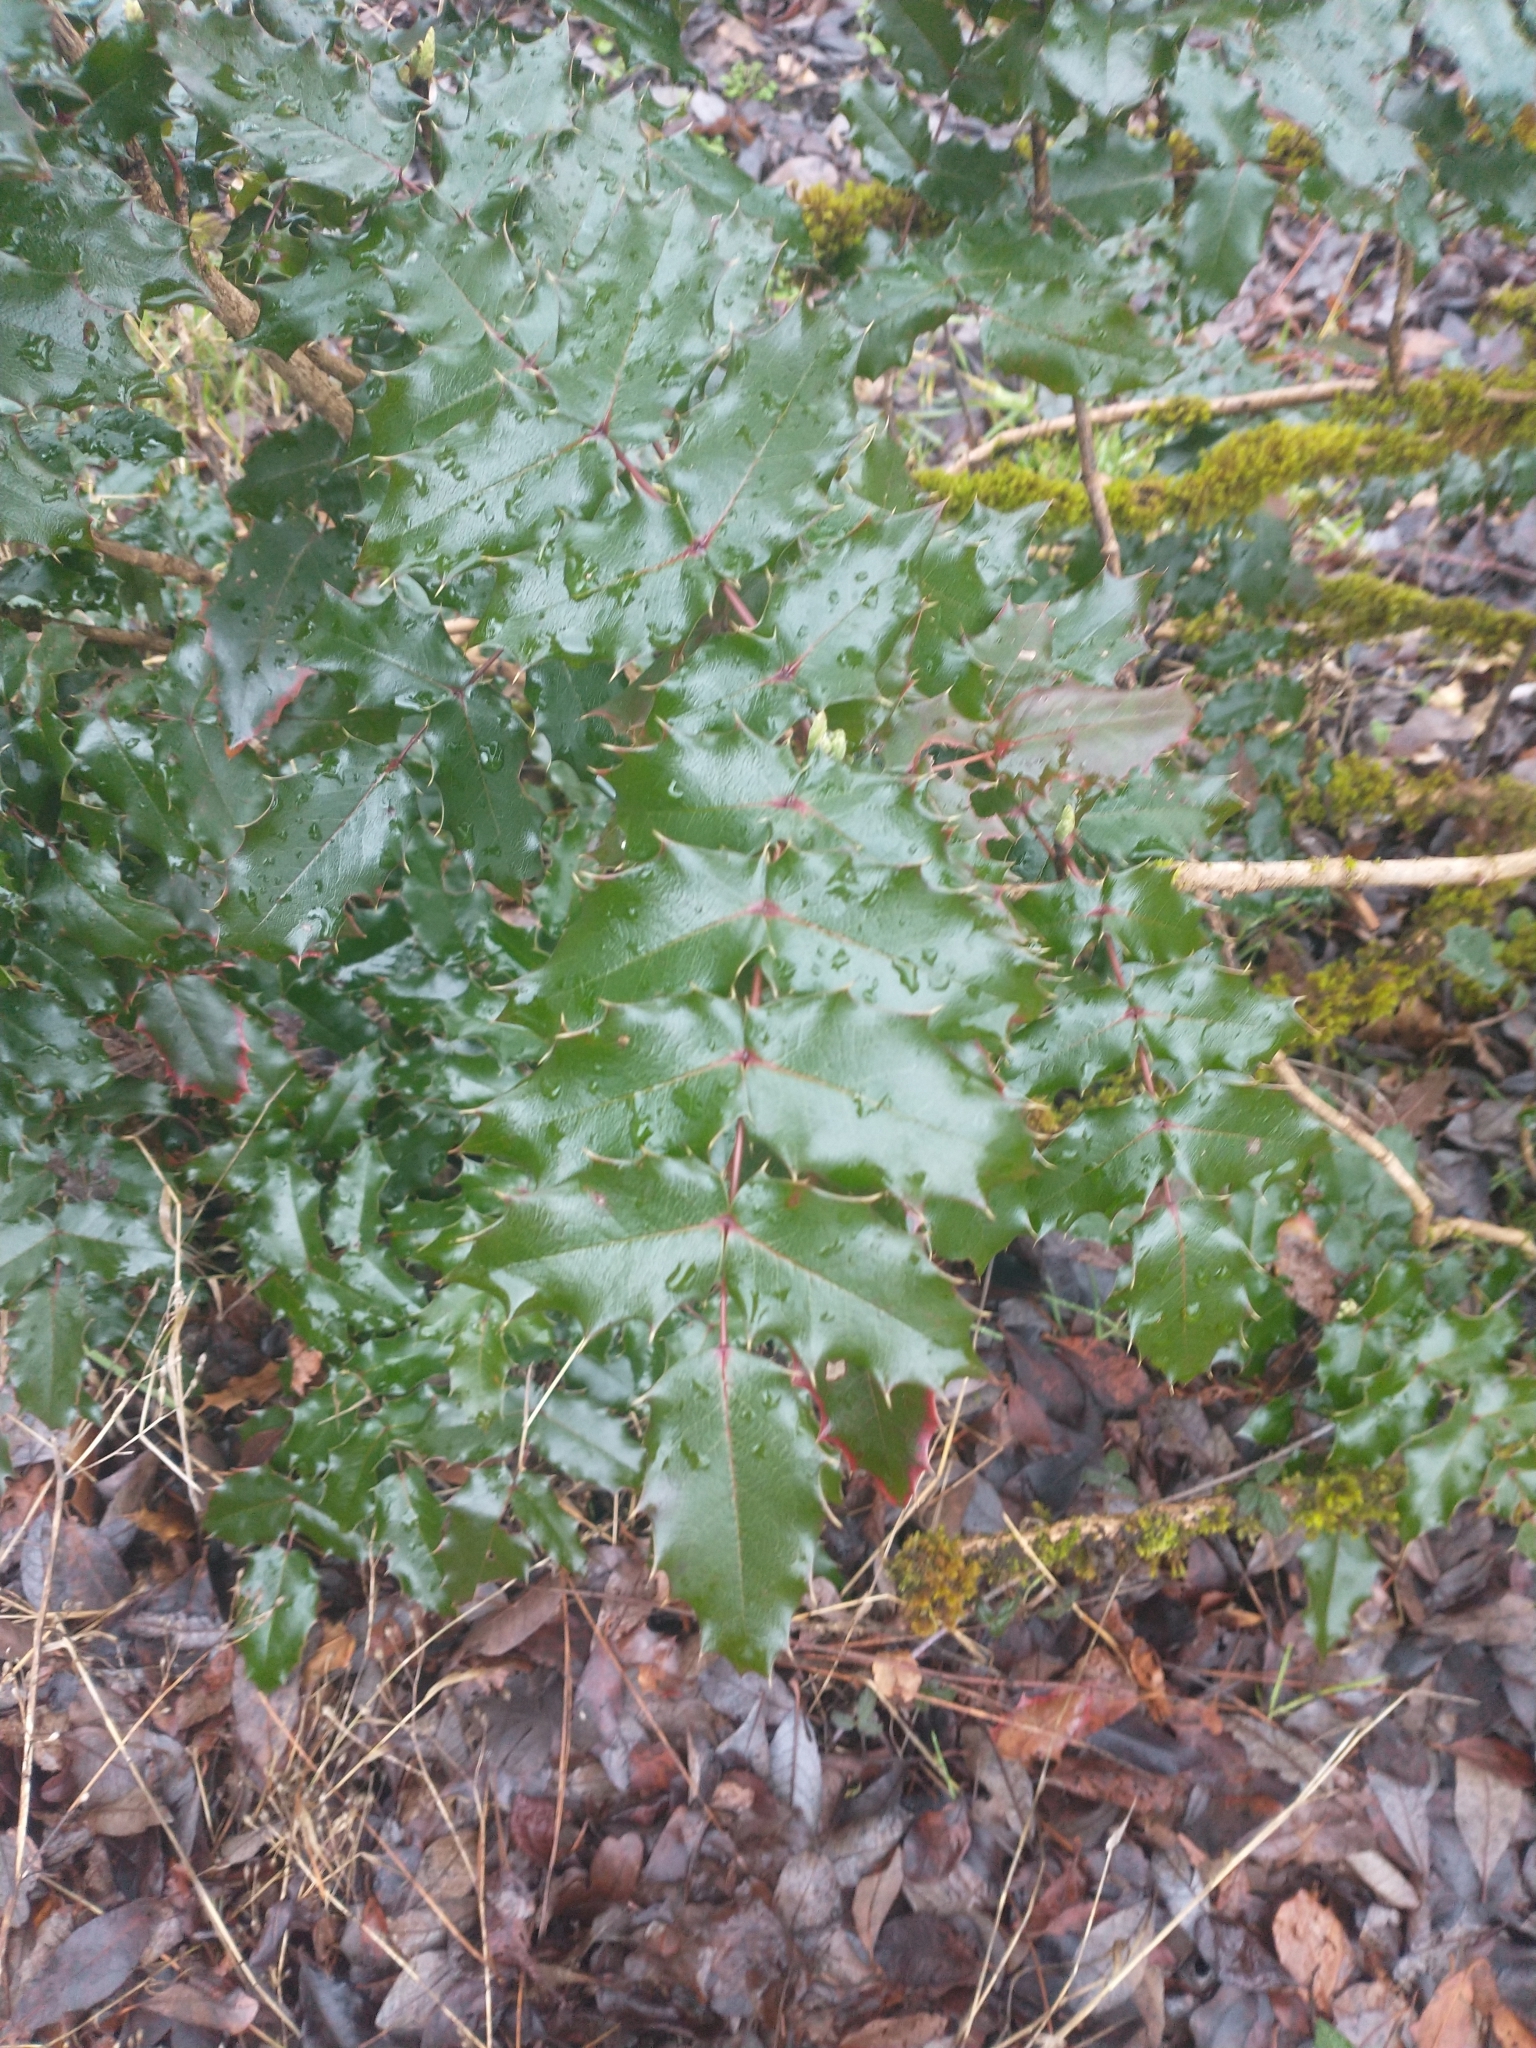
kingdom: Plantae
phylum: Tracheophyta
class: Magnoliopsida
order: Ranunculales
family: Berberidaceae
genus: Mahonia
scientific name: Mahonia aquifolium
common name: Oregon-grape
